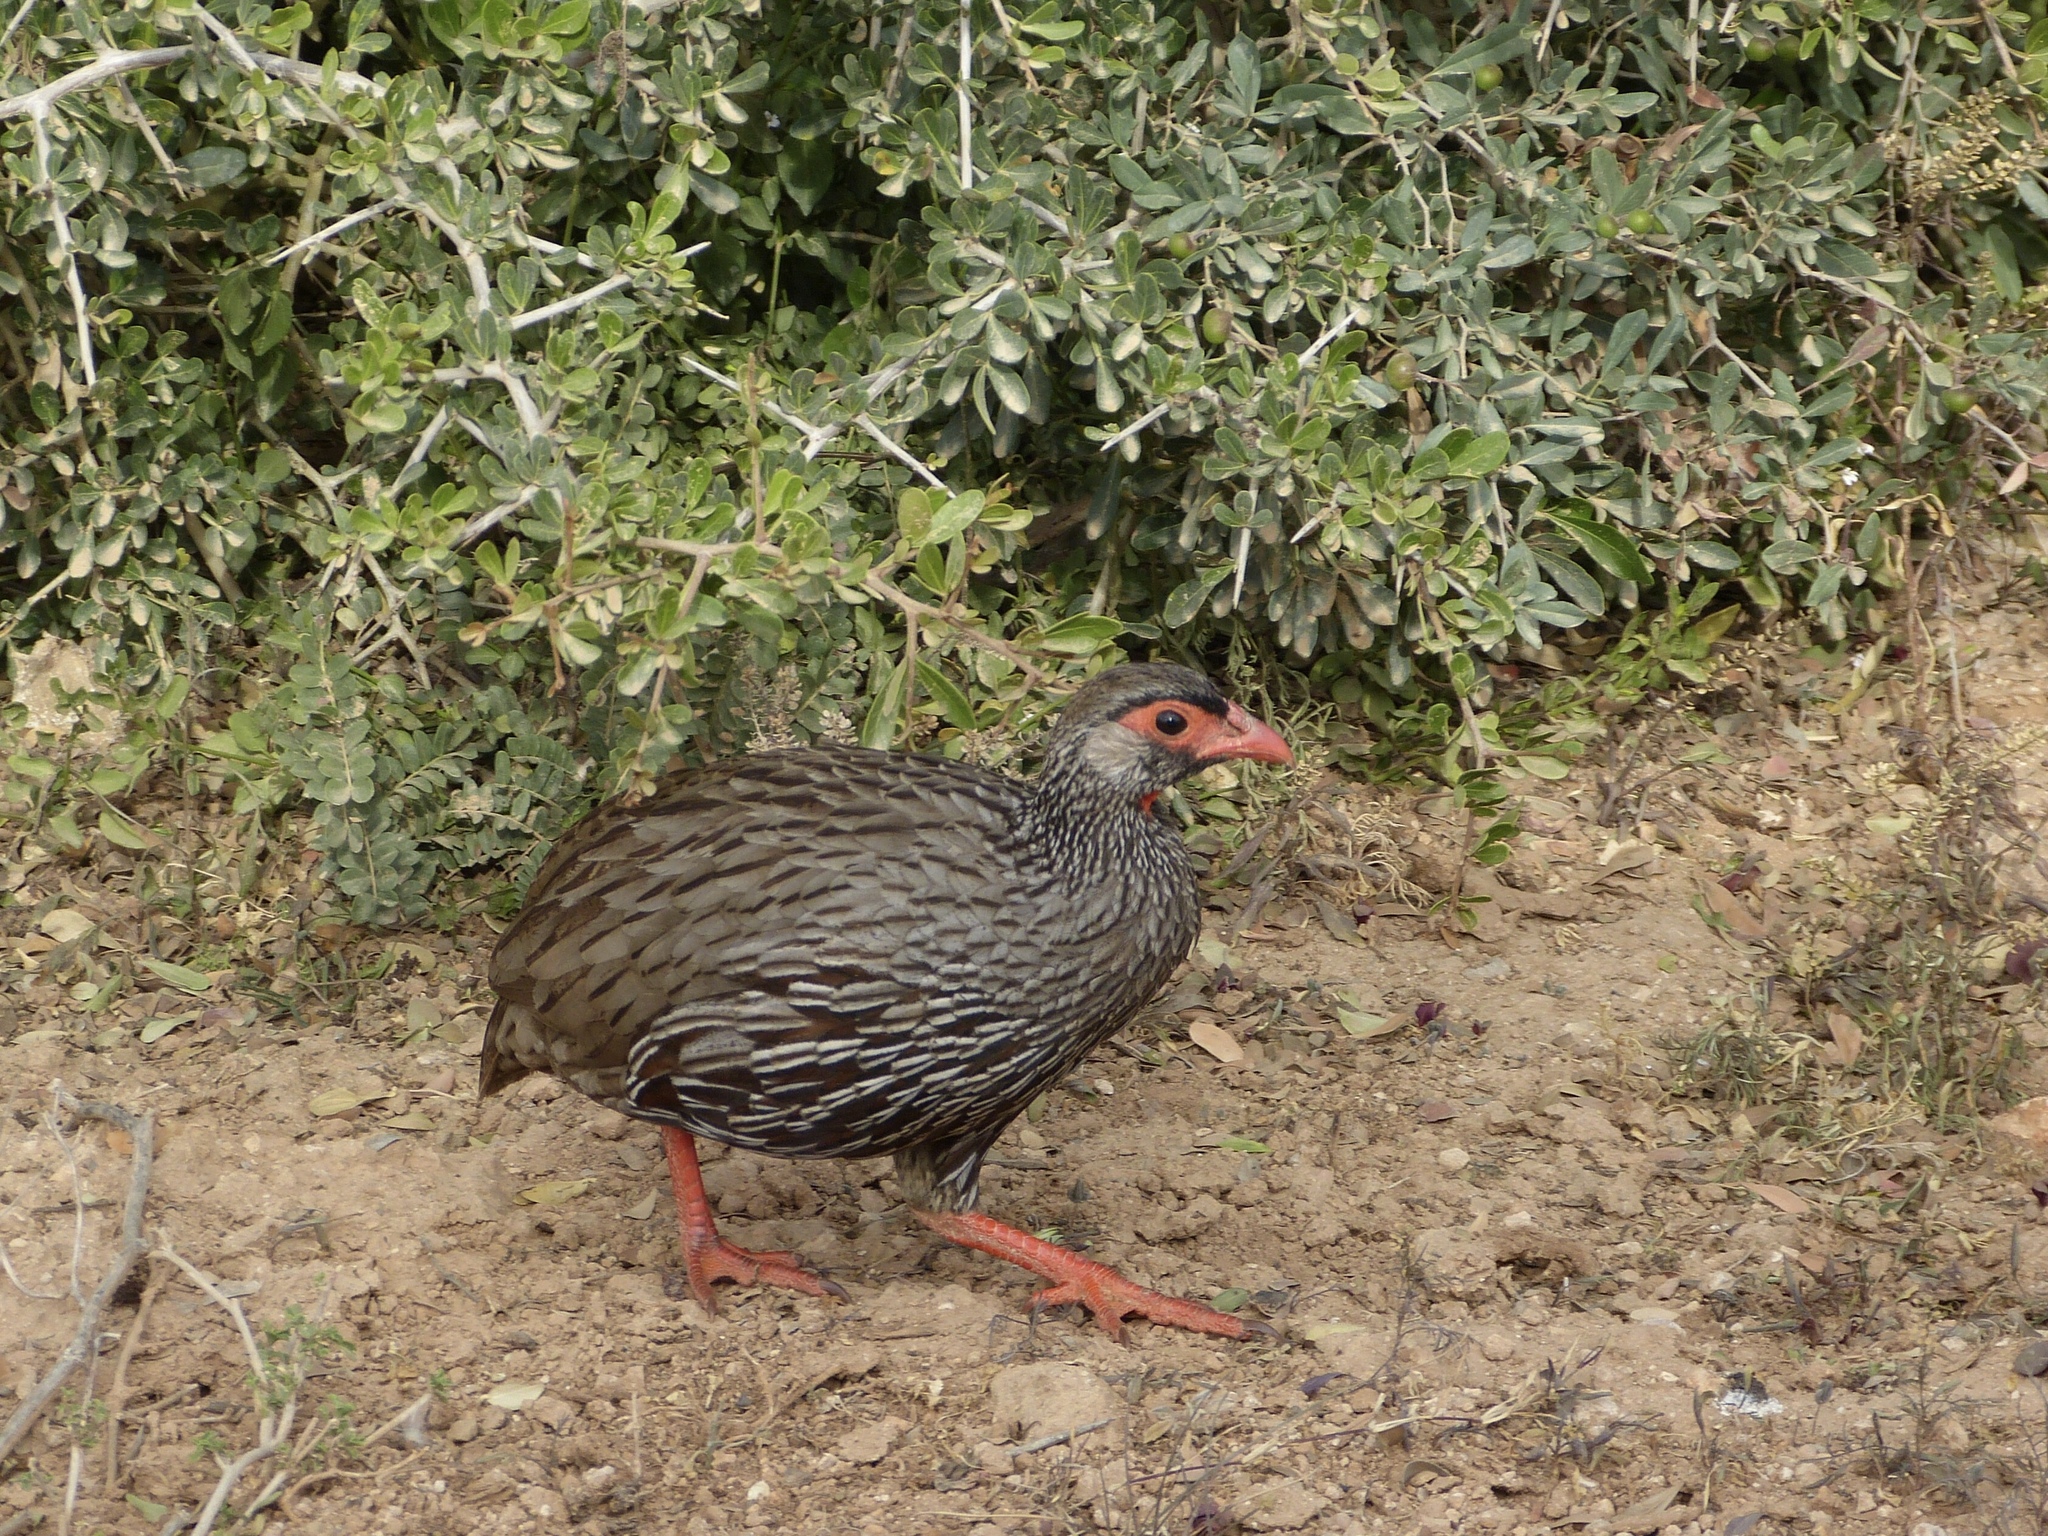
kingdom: Animalia
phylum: Chordata
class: Aves
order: Galliformes
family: Phasianidae
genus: Pternistis
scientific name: Pternistis afer
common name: Red-necked spurfowl
